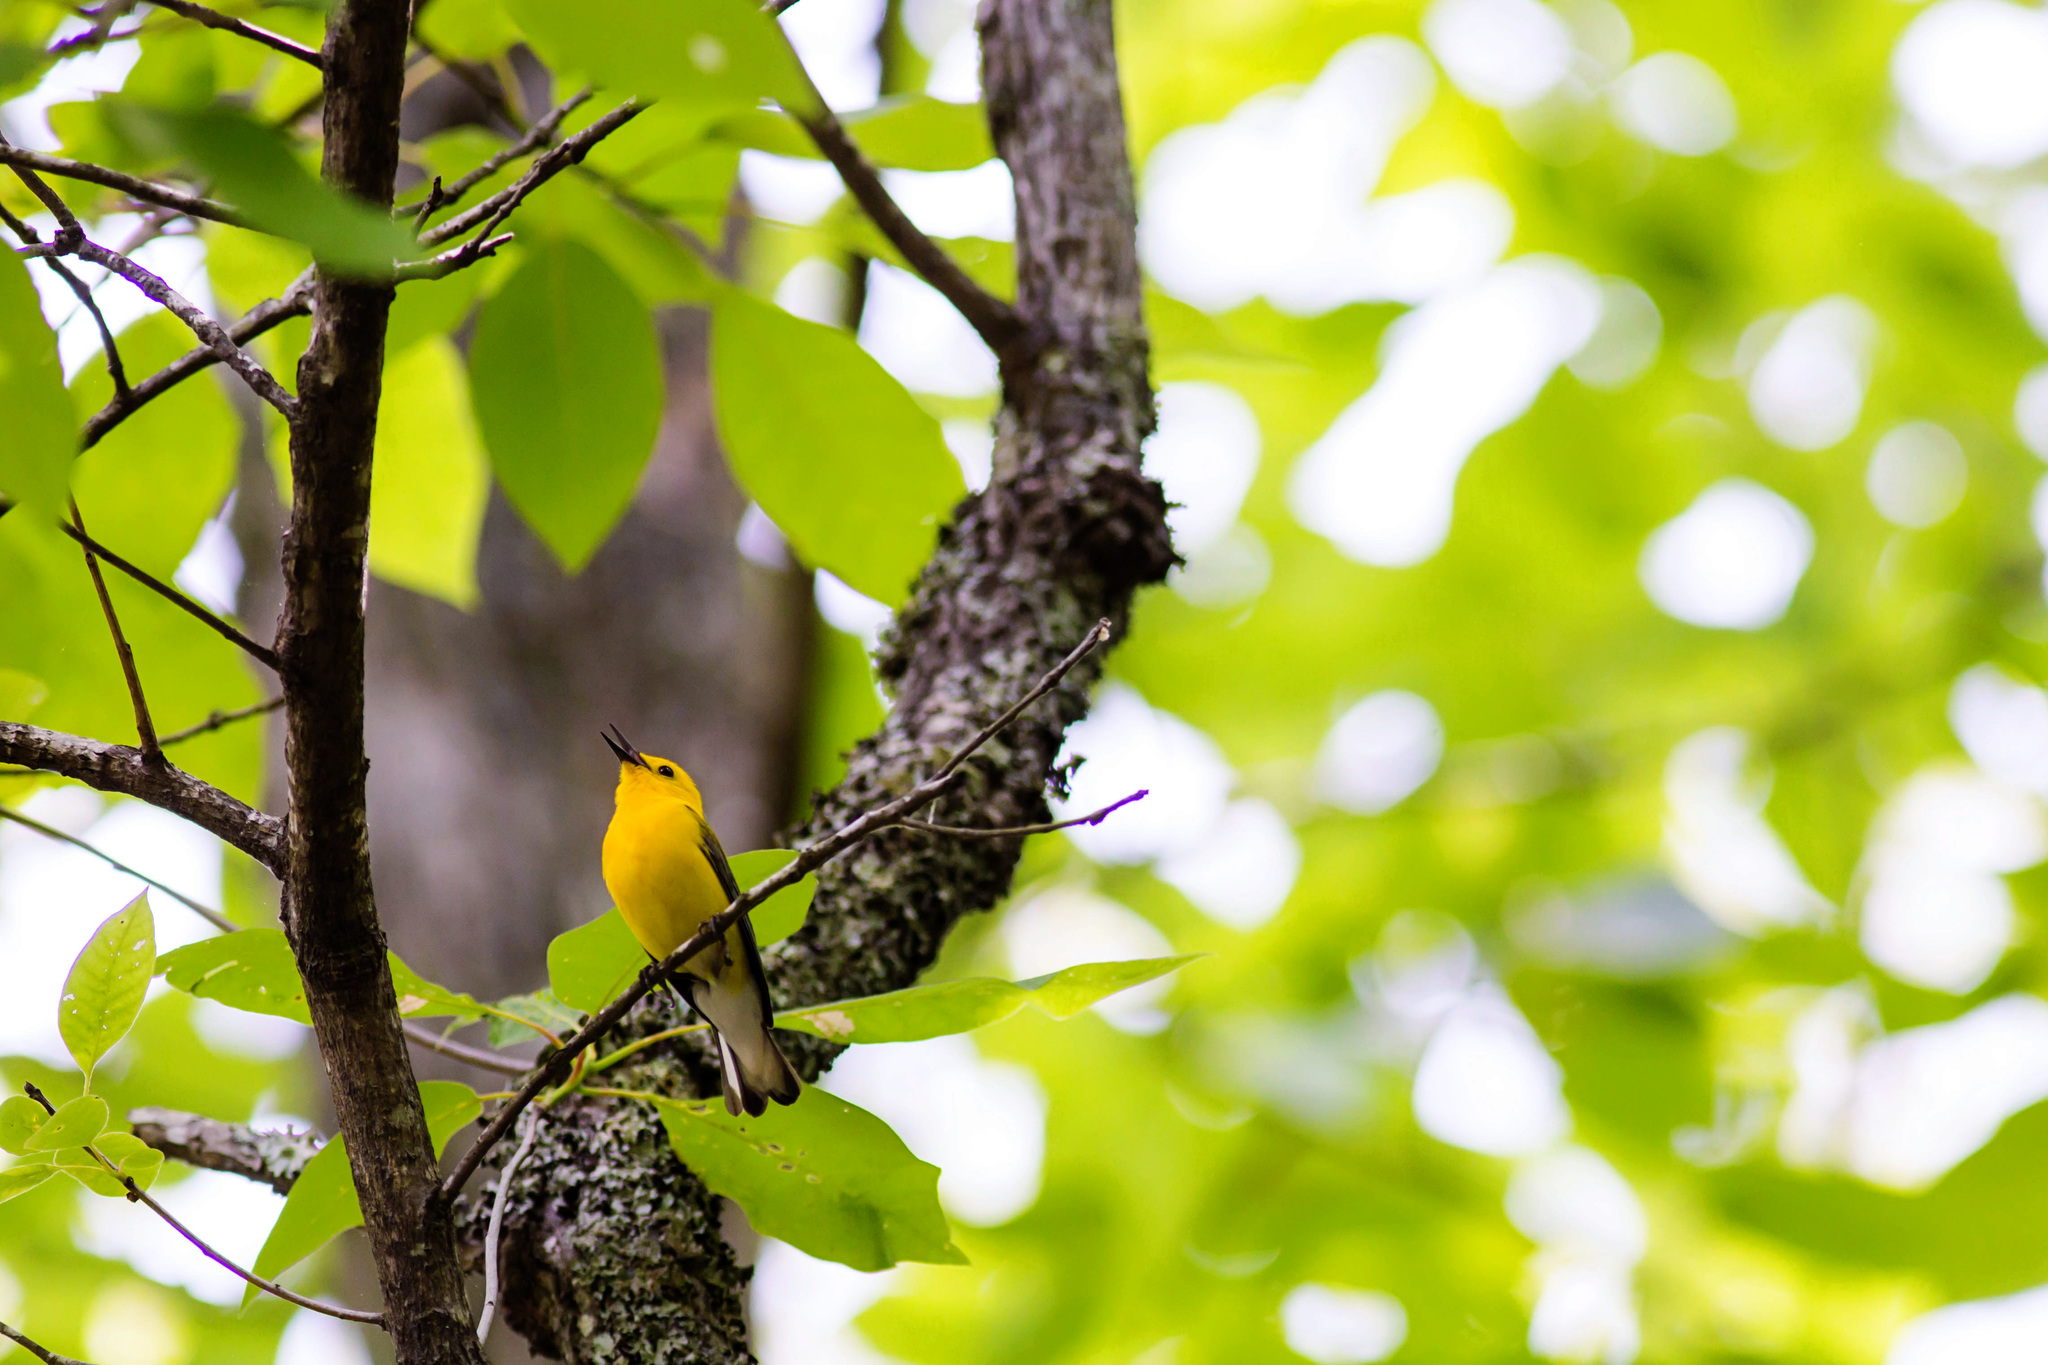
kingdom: Animalia
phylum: Chordata
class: Aves
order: Passeriformes
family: Parulidae
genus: Protonotaria
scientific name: Protonotaria citrea
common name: Prothonotary warbler
